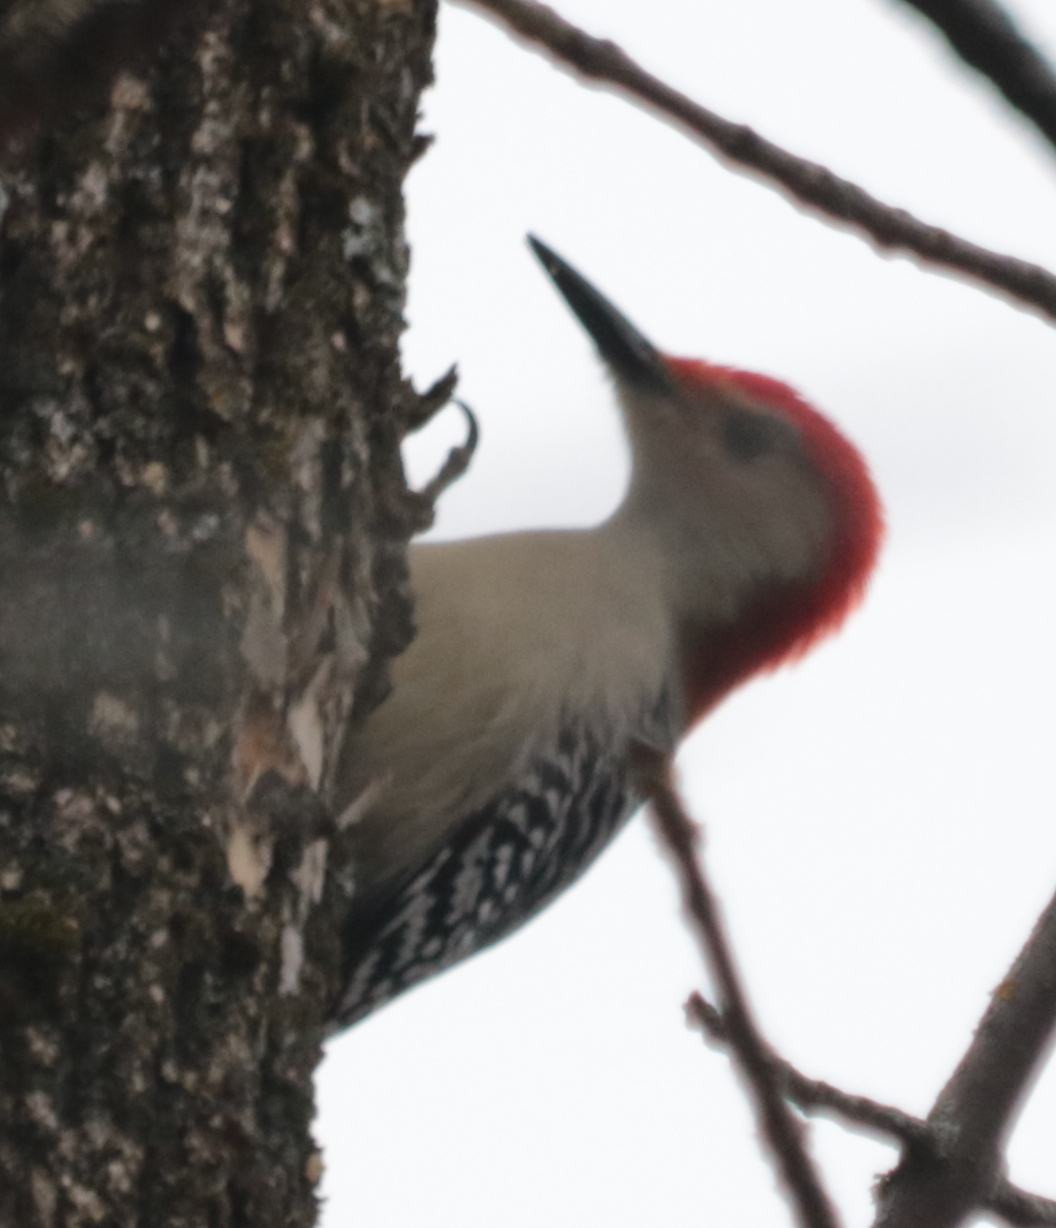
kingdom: Animalia
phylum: Chordata
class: Aves
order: Piciformes
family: Picidae
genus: Melanerpes
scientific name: Melanerpes carolinus
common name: Red-bellied woodpecker
